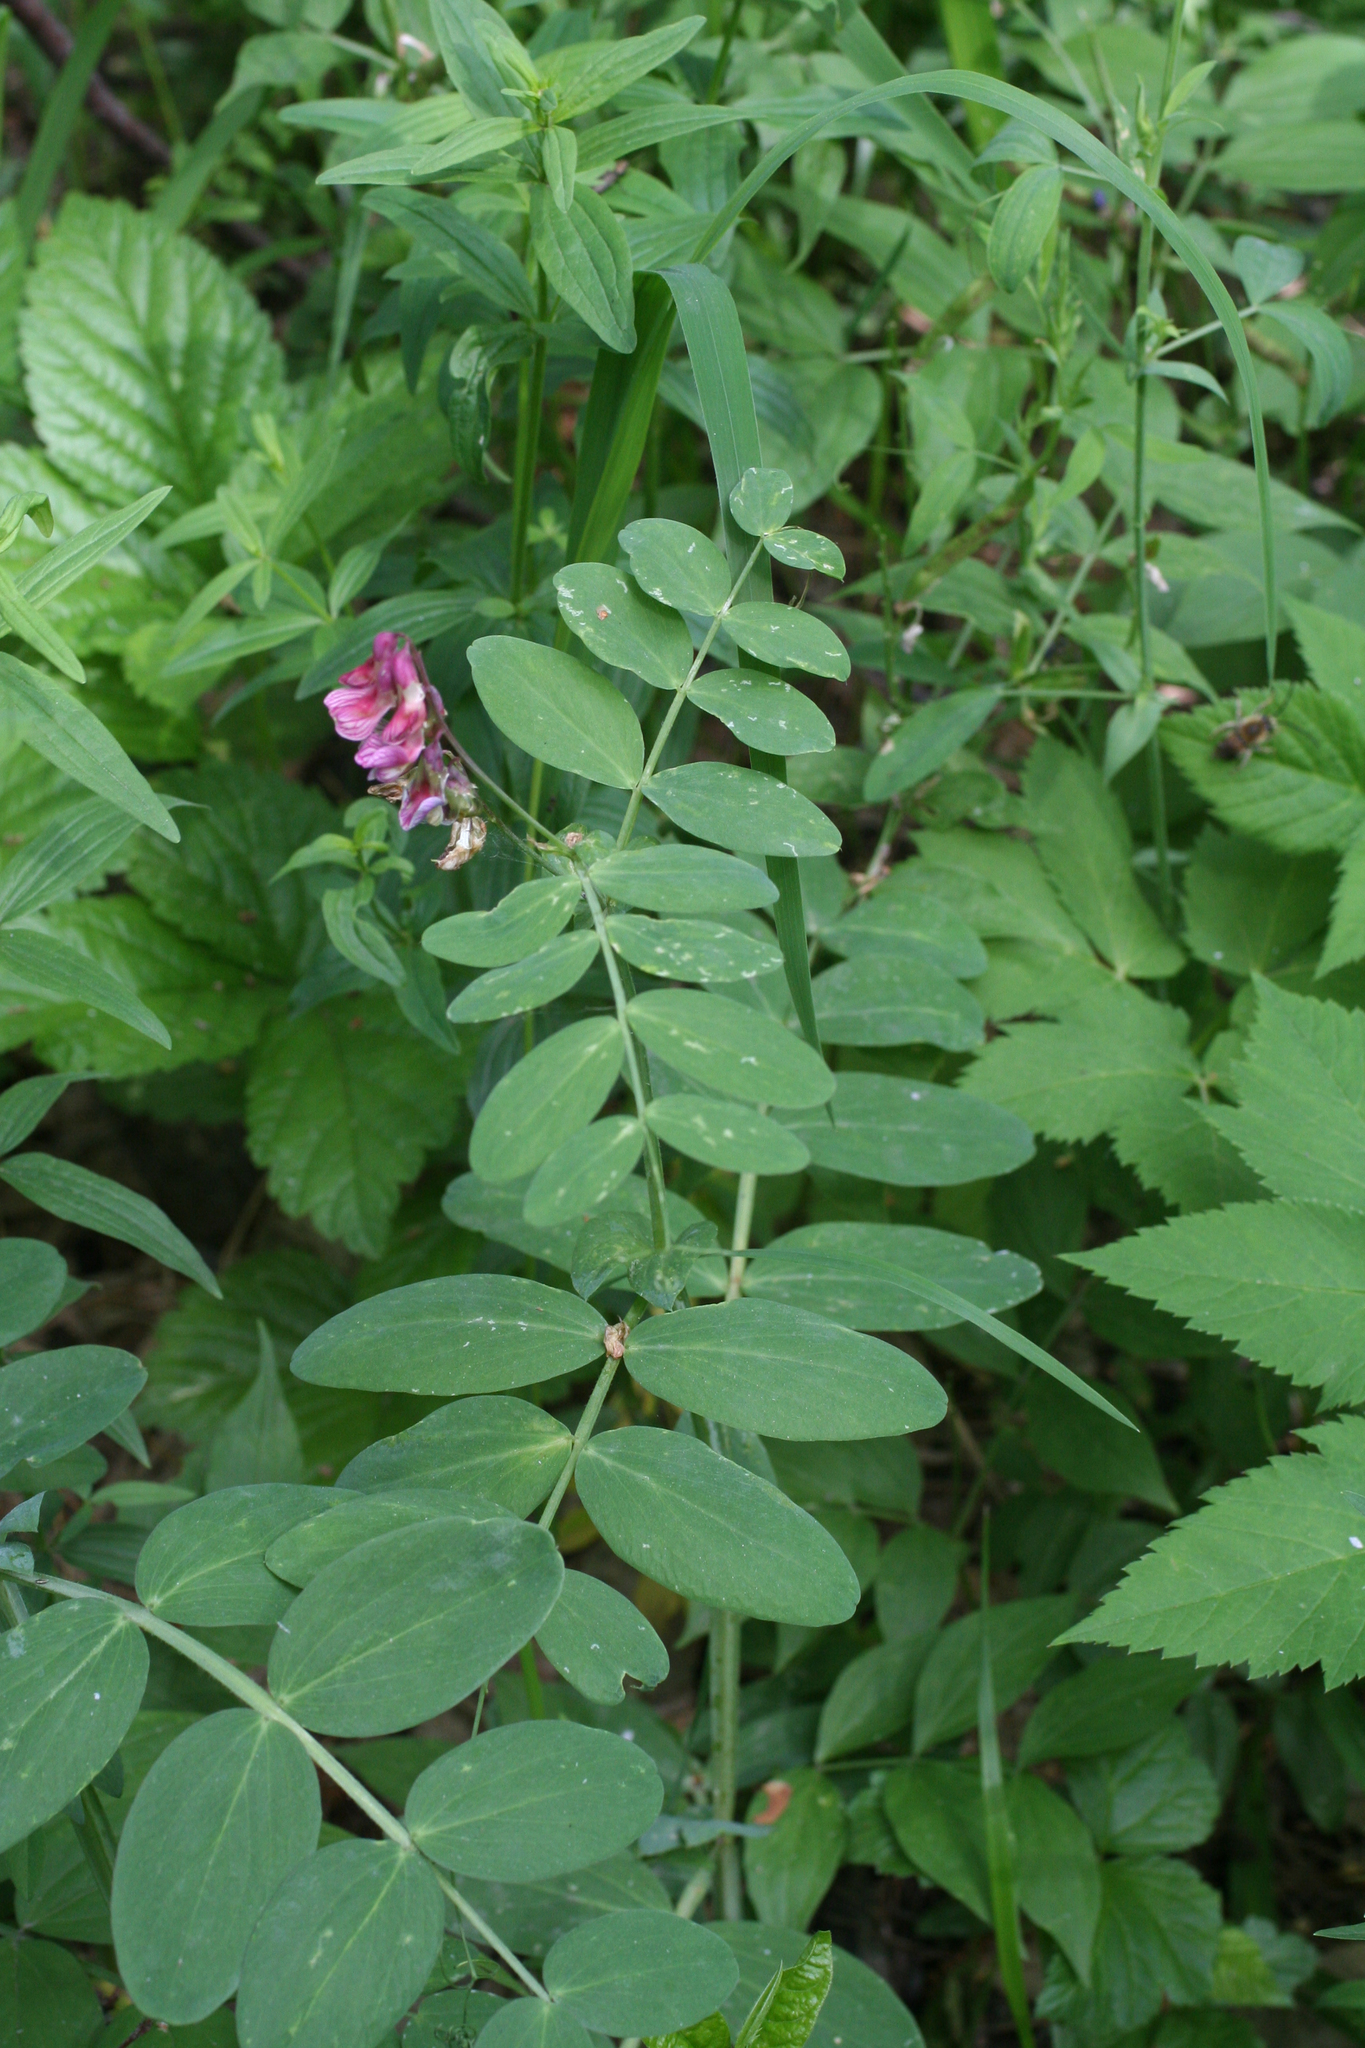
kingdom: Plantae
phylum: Tracheophyta
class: Magnoliopsida
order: Fabales
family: Fabaceae
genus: Lathyrus
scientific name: Lathyrus pisiformis
